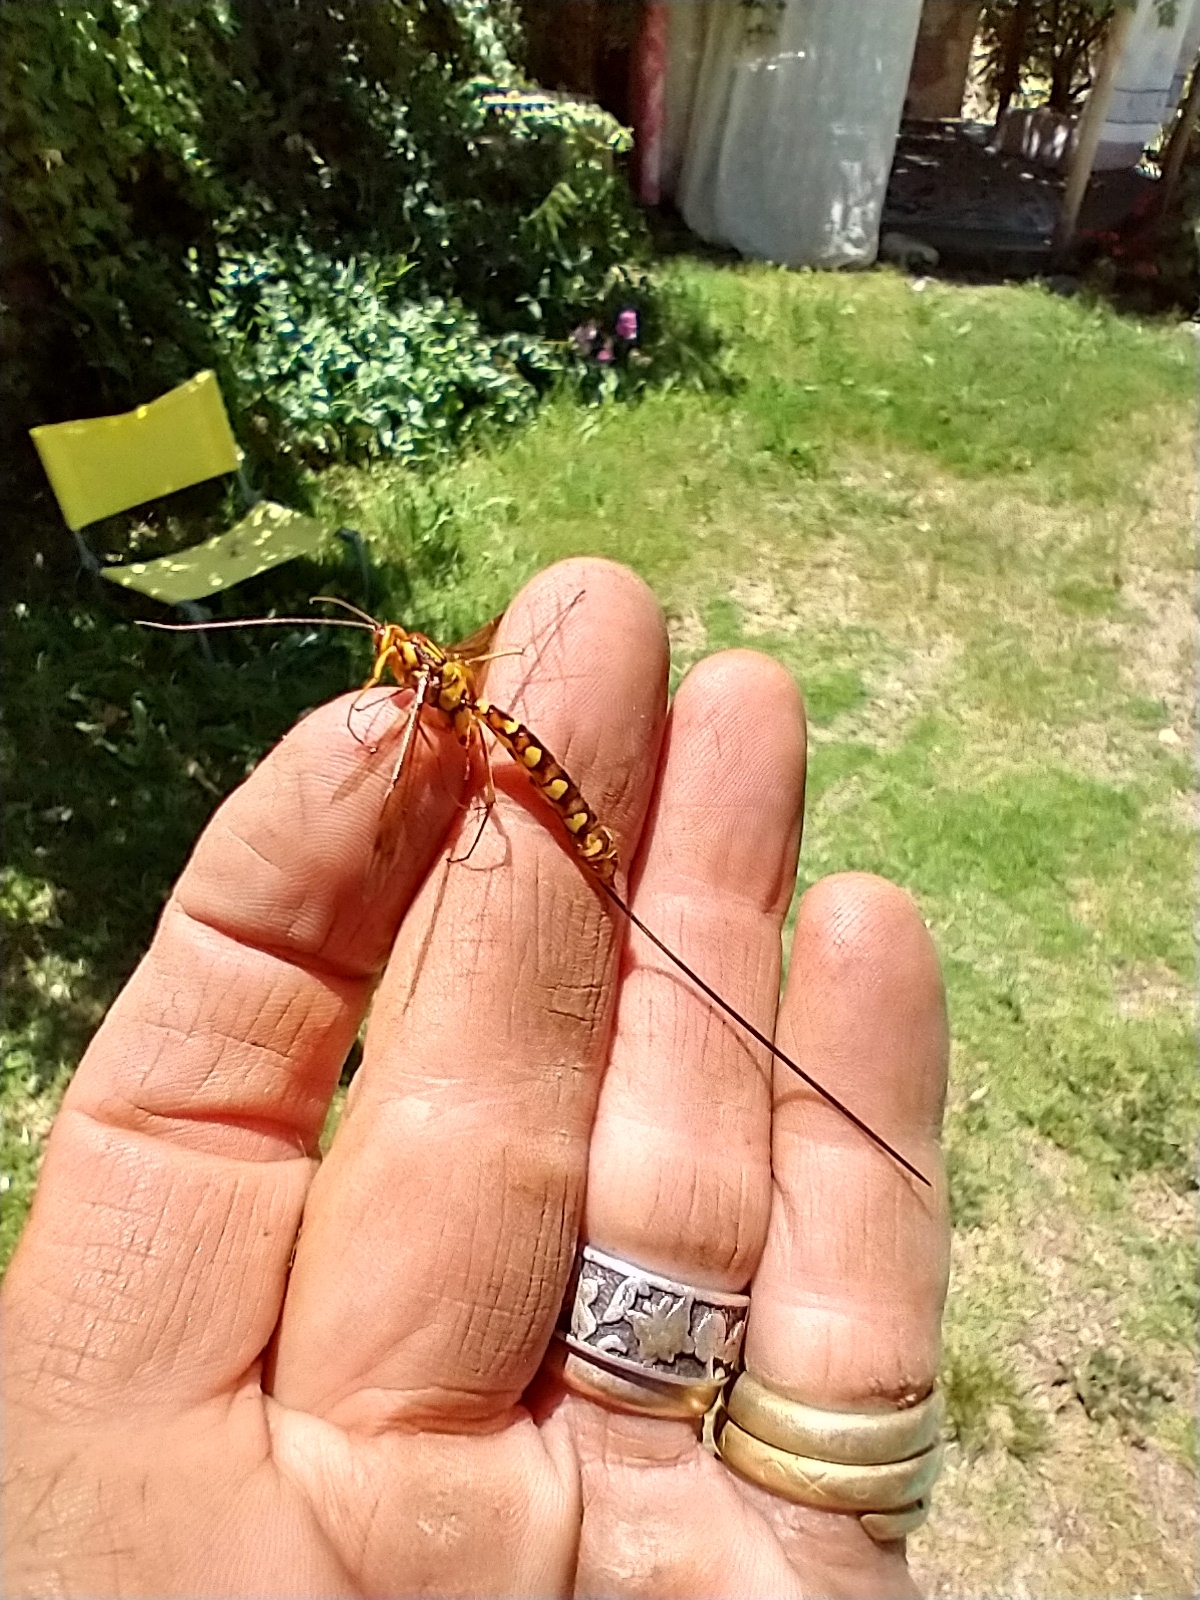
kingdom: Animalia
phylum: Arthropoda
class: Insecta
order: Hymenoptera
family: Ichneumonidae
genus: Megarhyssa
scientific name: Megarhyssa praecellens
